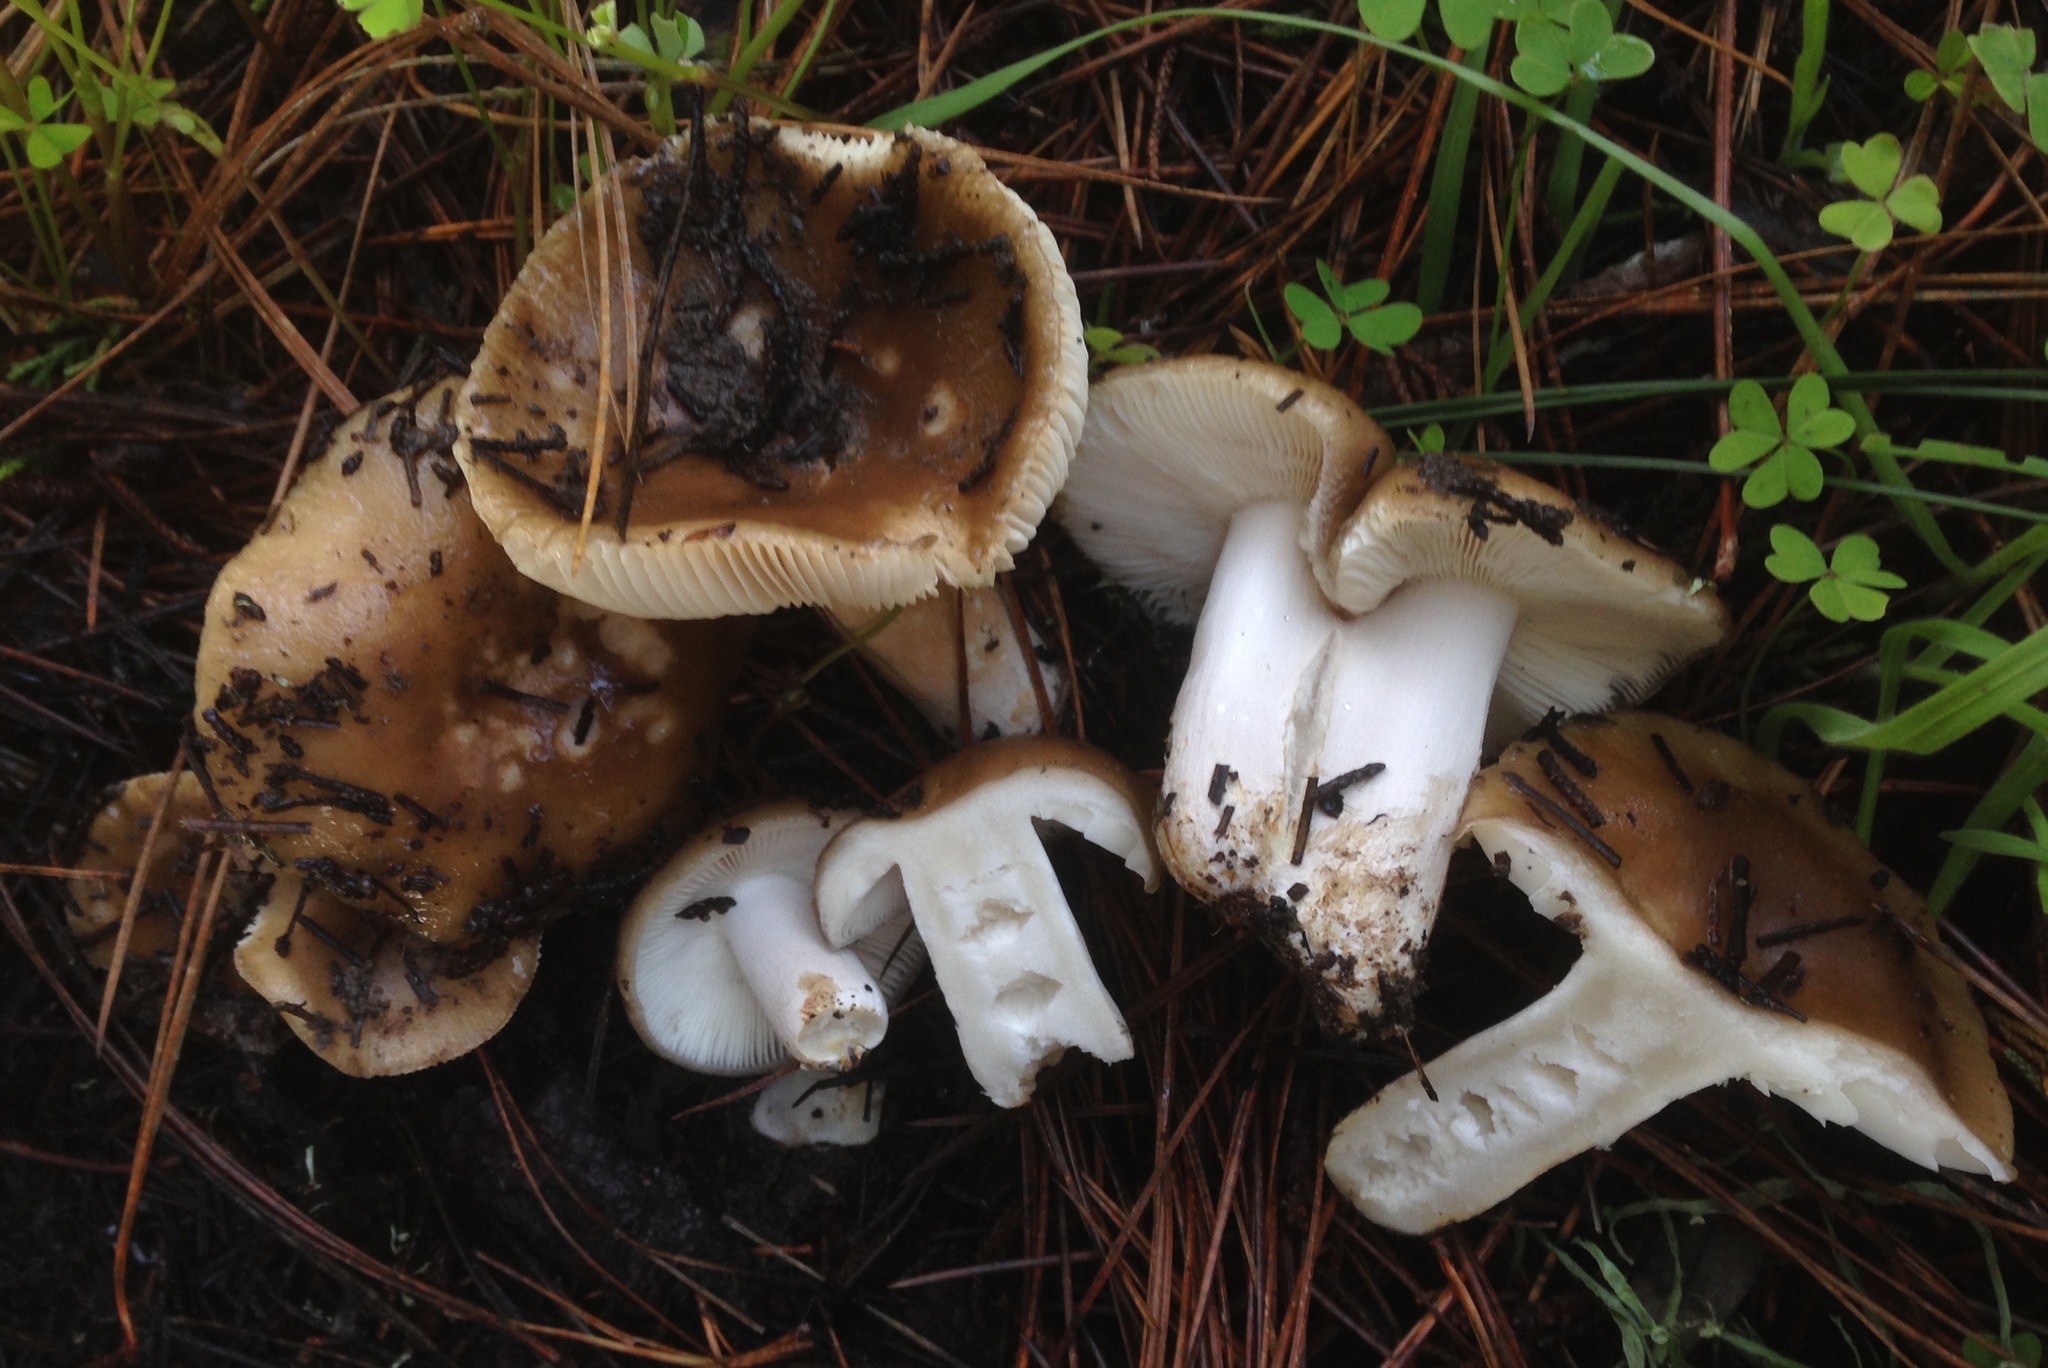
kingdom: Fungi
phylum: Basidiomycota
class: Agaricomycetes
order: Russulales
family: Russulaceae
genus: Russula
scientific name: Russula cerolens
